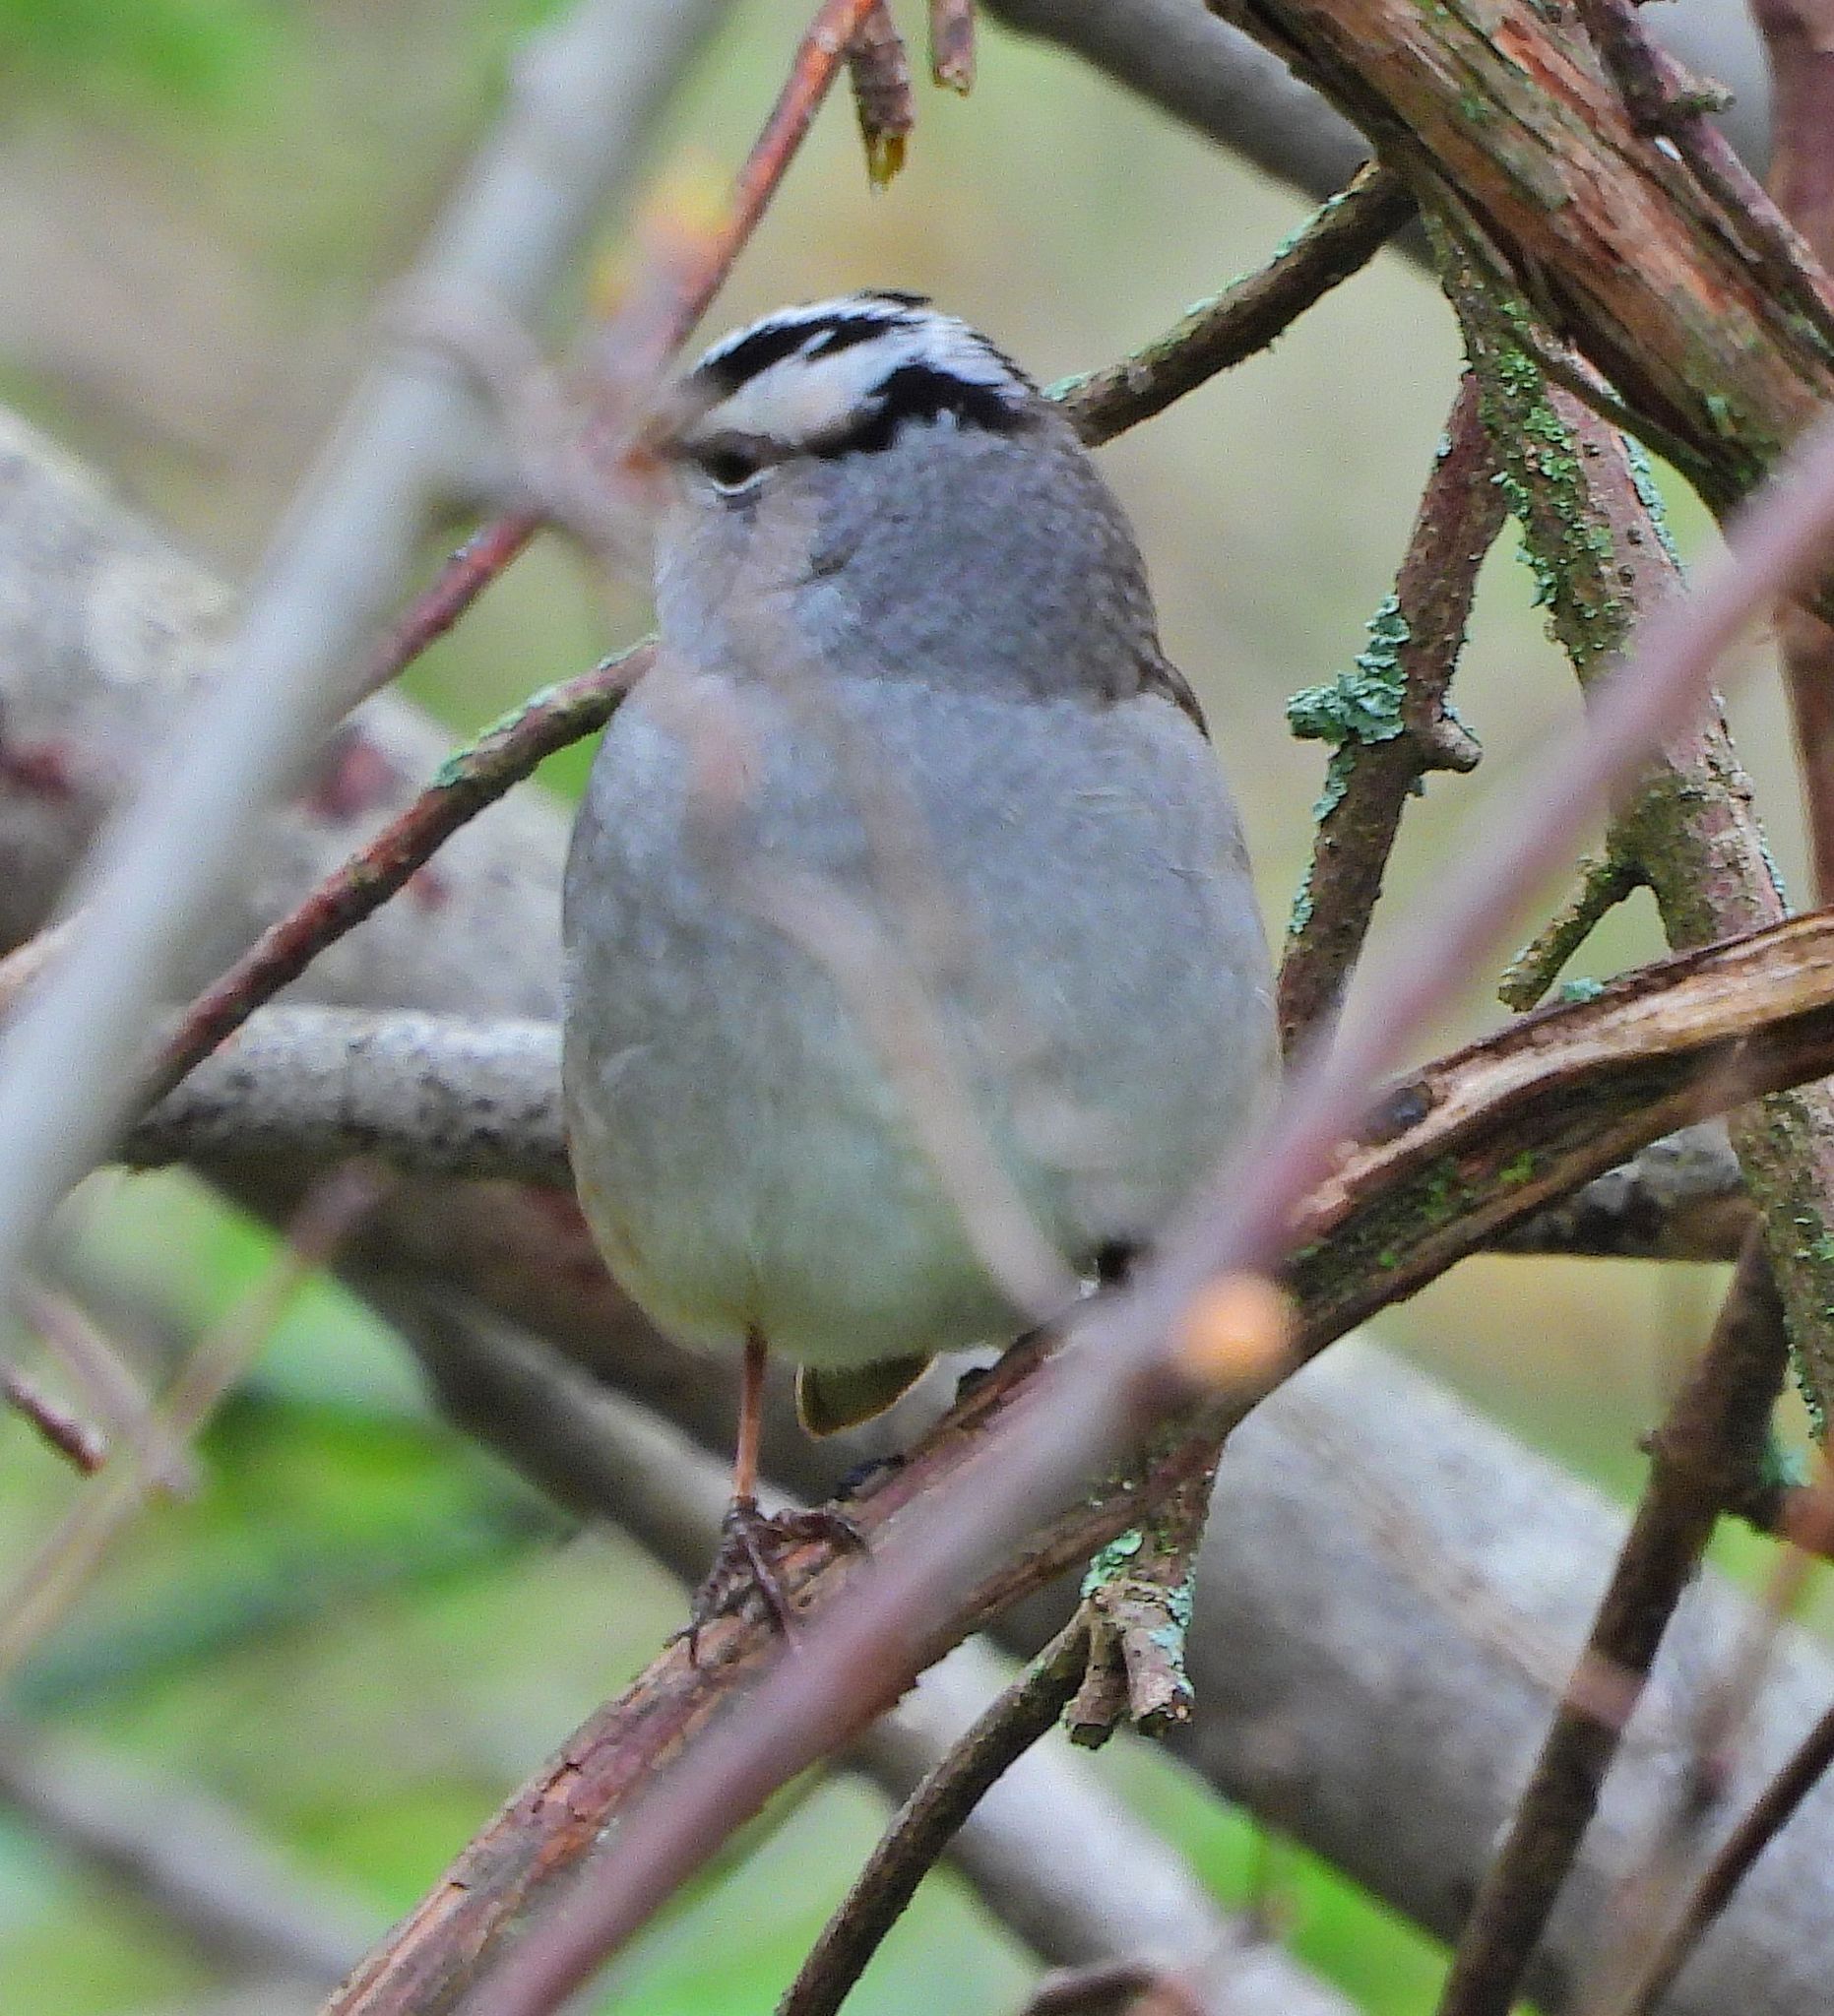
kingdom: Animalia
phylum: Chordata
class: Aves
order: Passeriformes
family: Passerellidae
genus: Zonotrichia
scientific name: Zonotrichia leucophrys
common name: White-crowned sparrow
